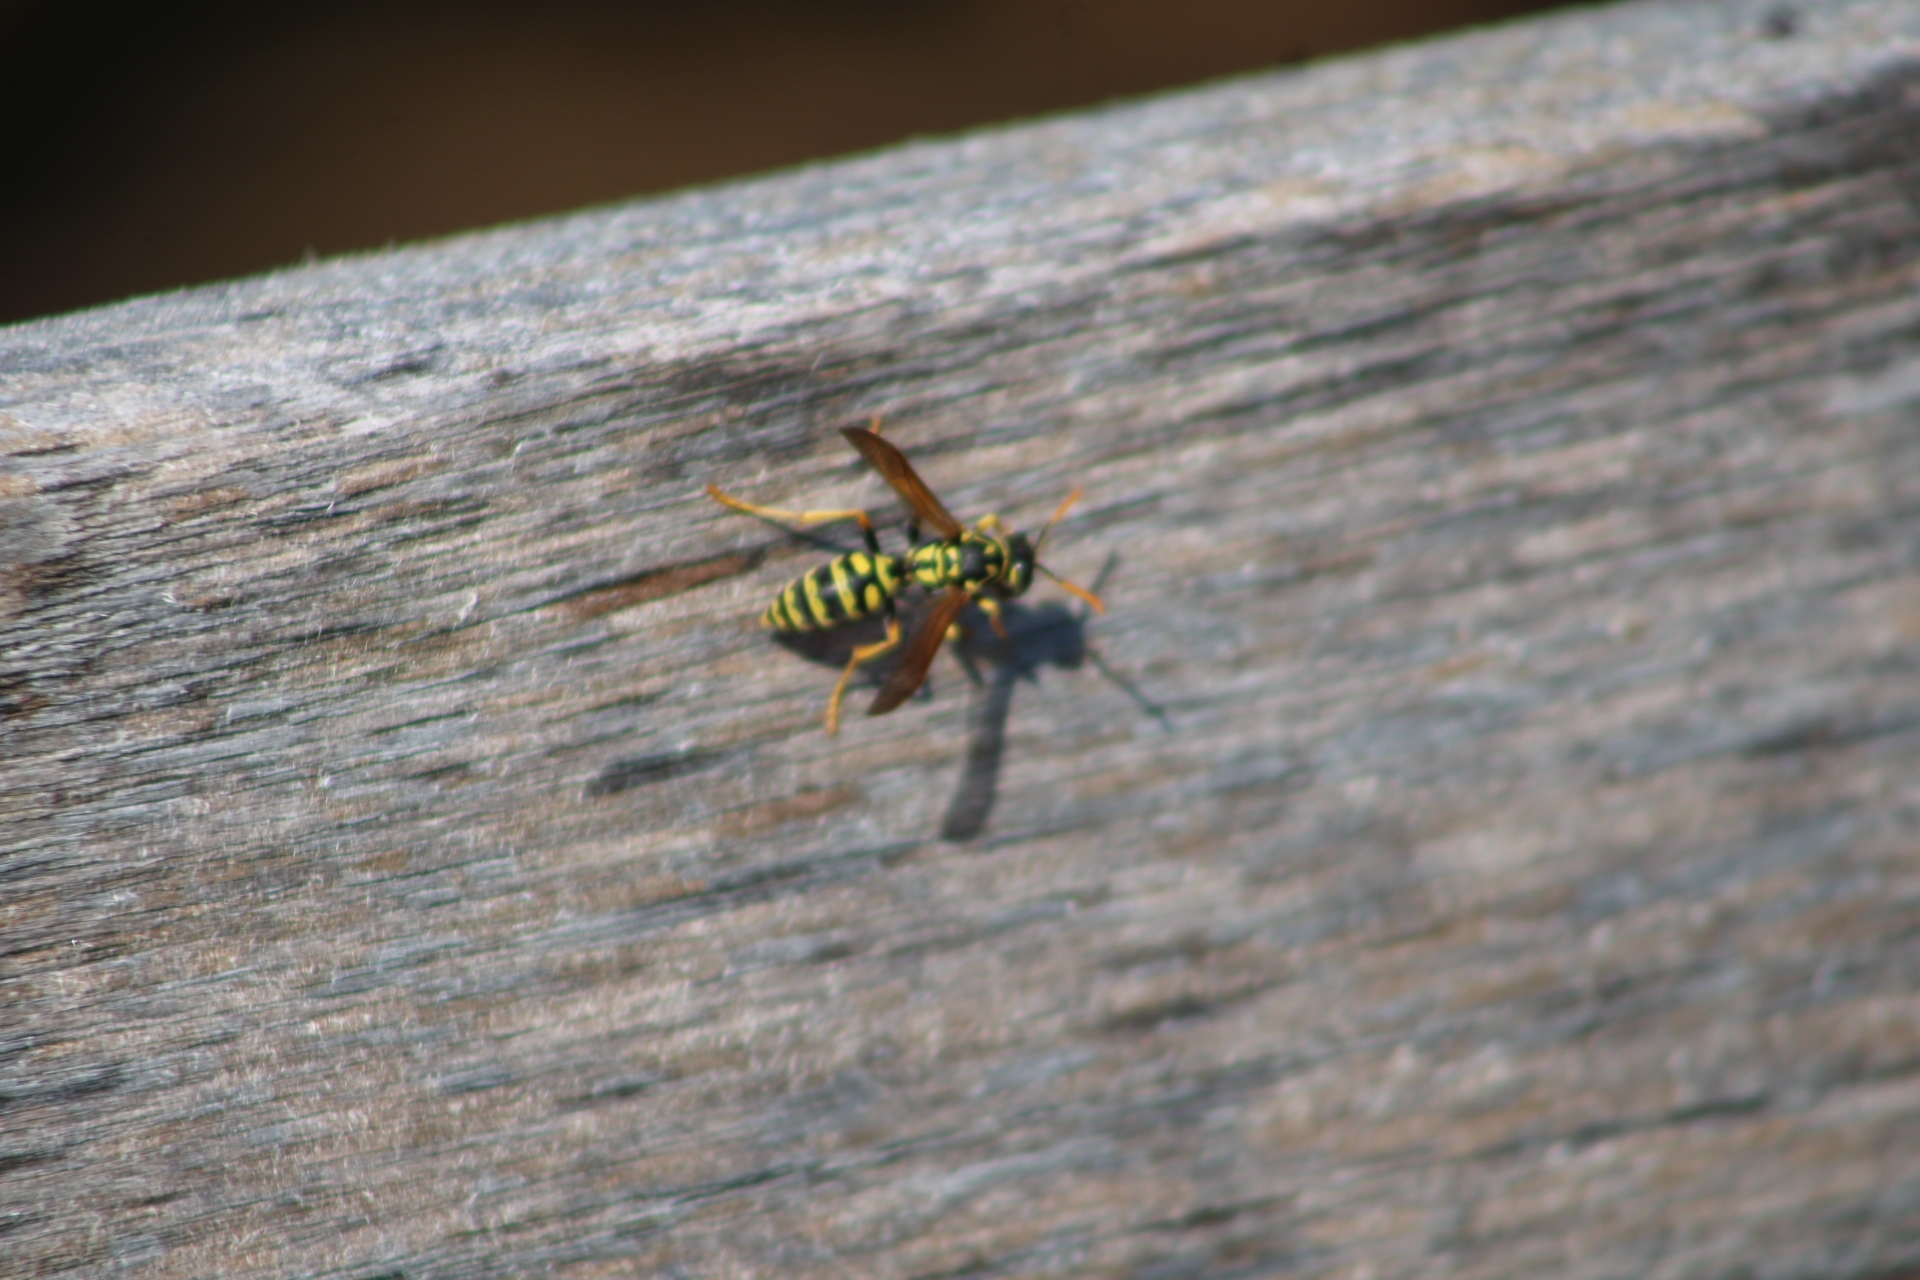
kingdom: Animalia
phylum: Arthropoda
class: Insecta
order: Hymenoptera
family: Eumenidae
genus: Polistes
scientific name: Polistes dominula
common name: Paper wasp
